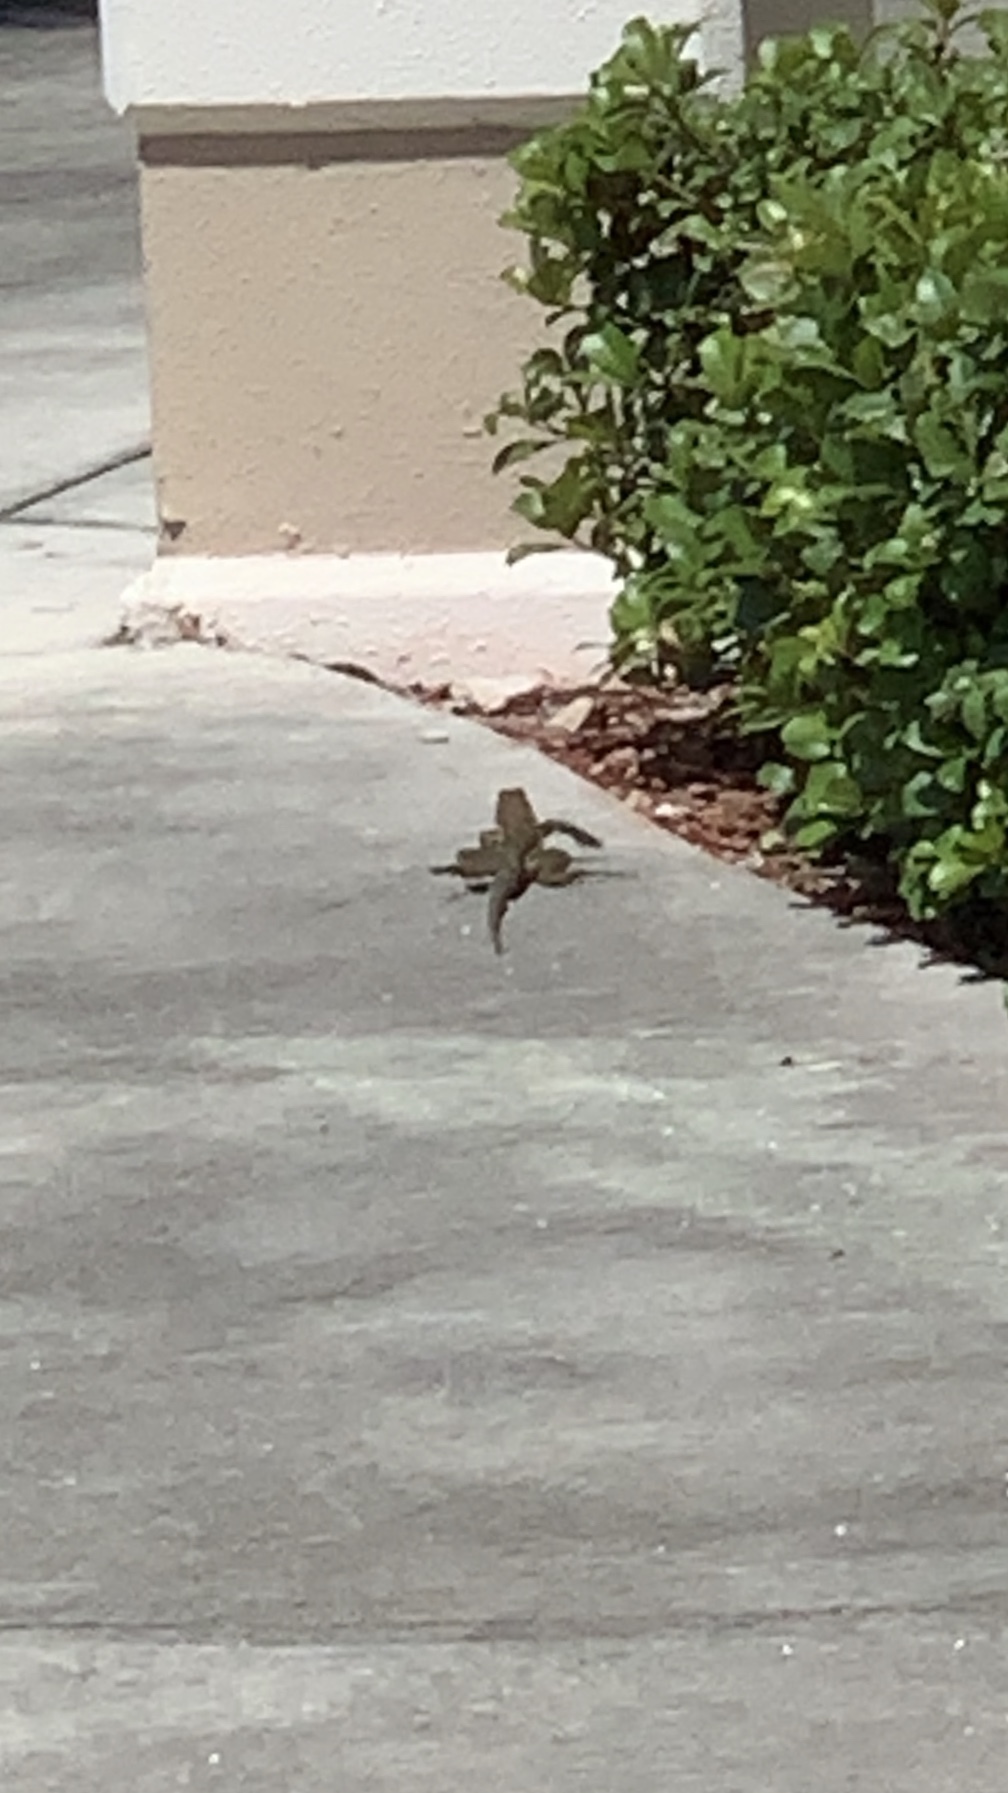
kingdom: Animalia
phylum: Chordata
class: Squamata
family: Teiidae
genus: Ameiva
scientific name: Ameiva ameiva
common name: Giant ameiva
